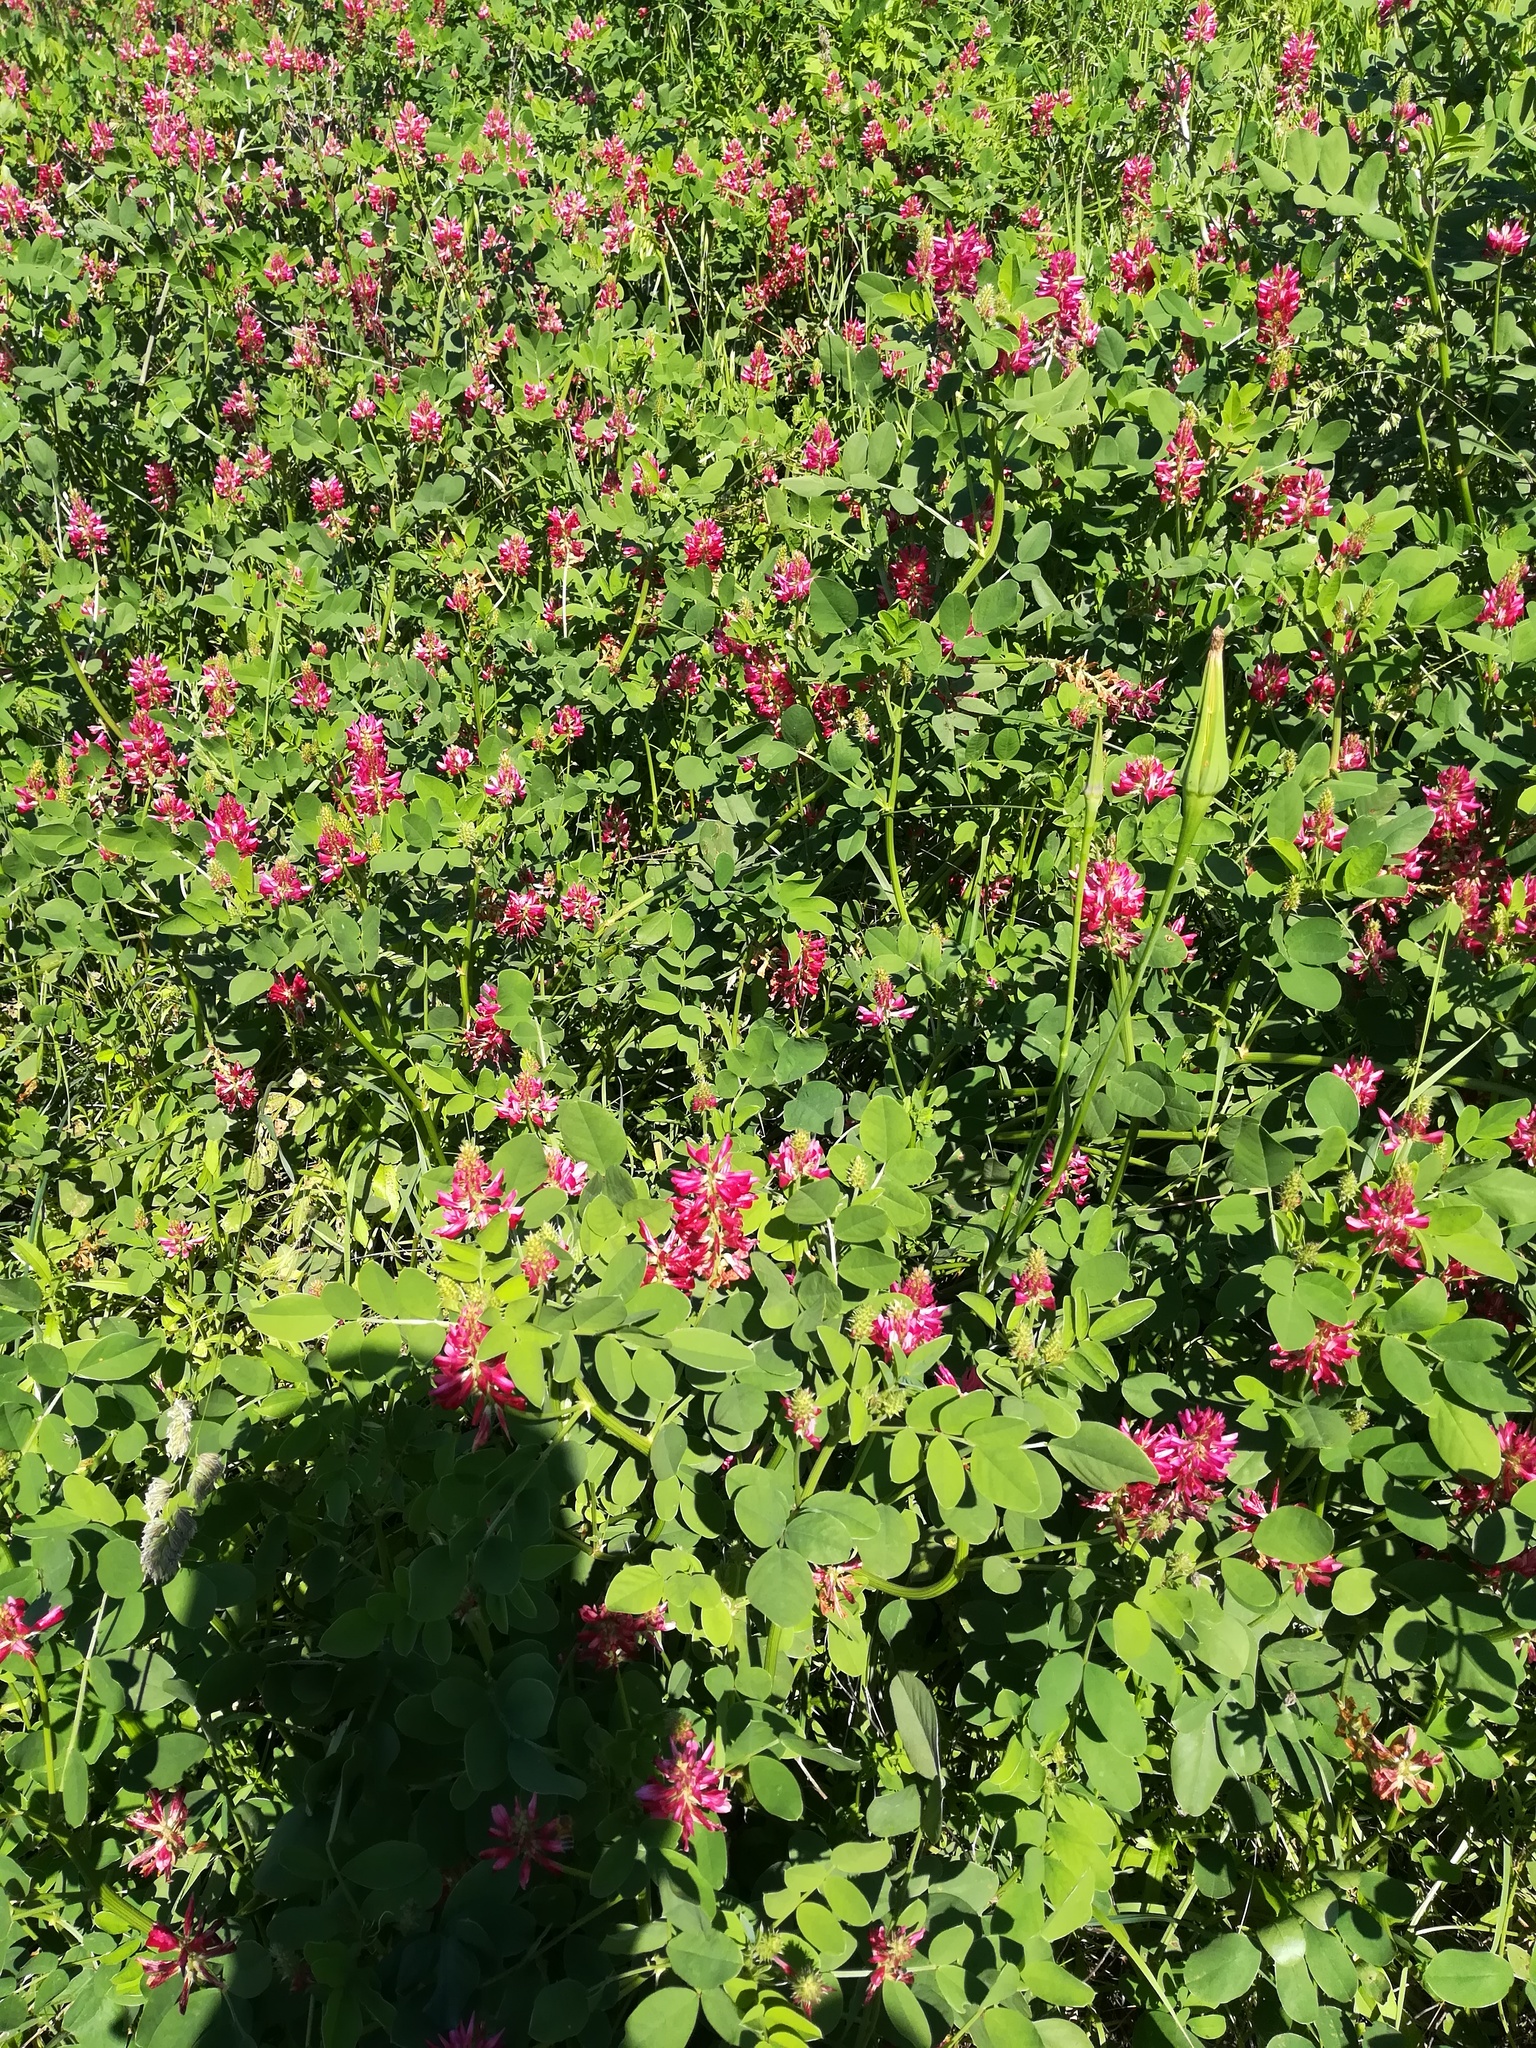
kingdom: Plantae
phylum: Tracheophyta
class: Magnoliopsida
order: Fabales
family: Fabaceae
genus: Sulla
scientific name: Sulla coronaria
